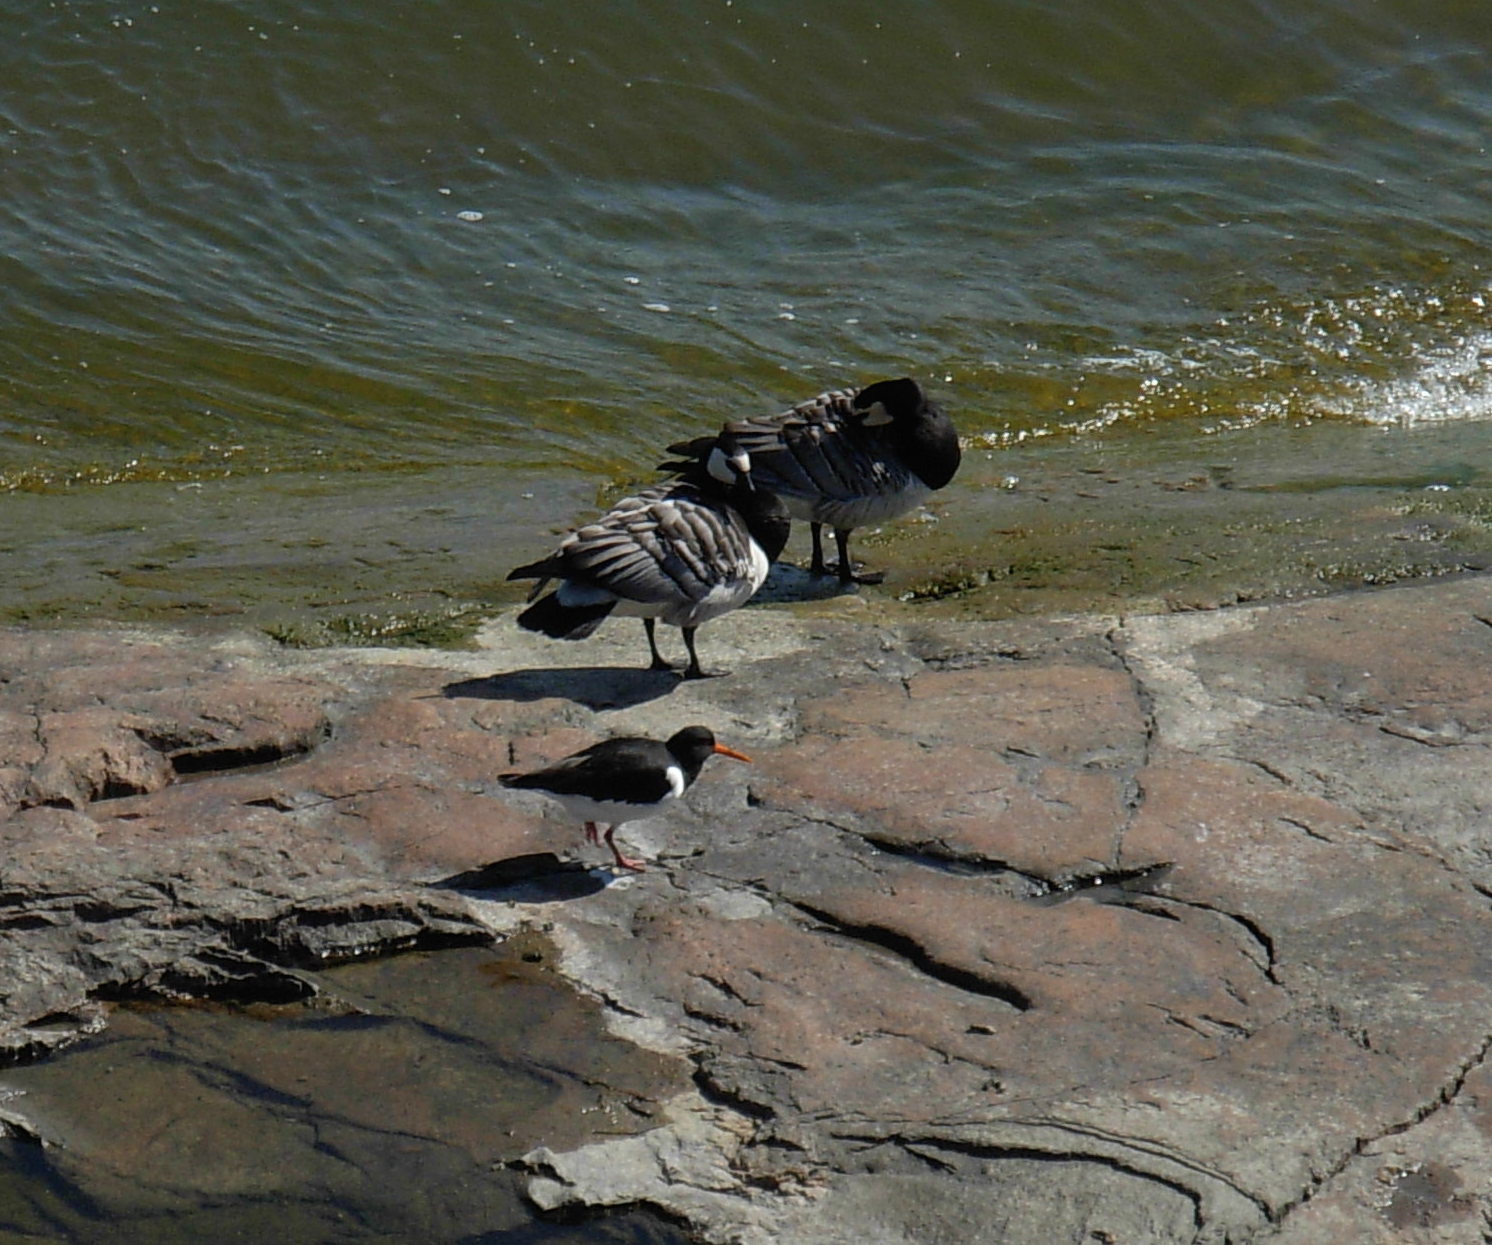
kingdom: Animalia
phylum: Chordata
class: Aves
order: Charadriiformes
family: Haematopodidae
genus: Haematopus
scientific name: Haematopus ostralegus
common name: Eurasian oystercatcher
